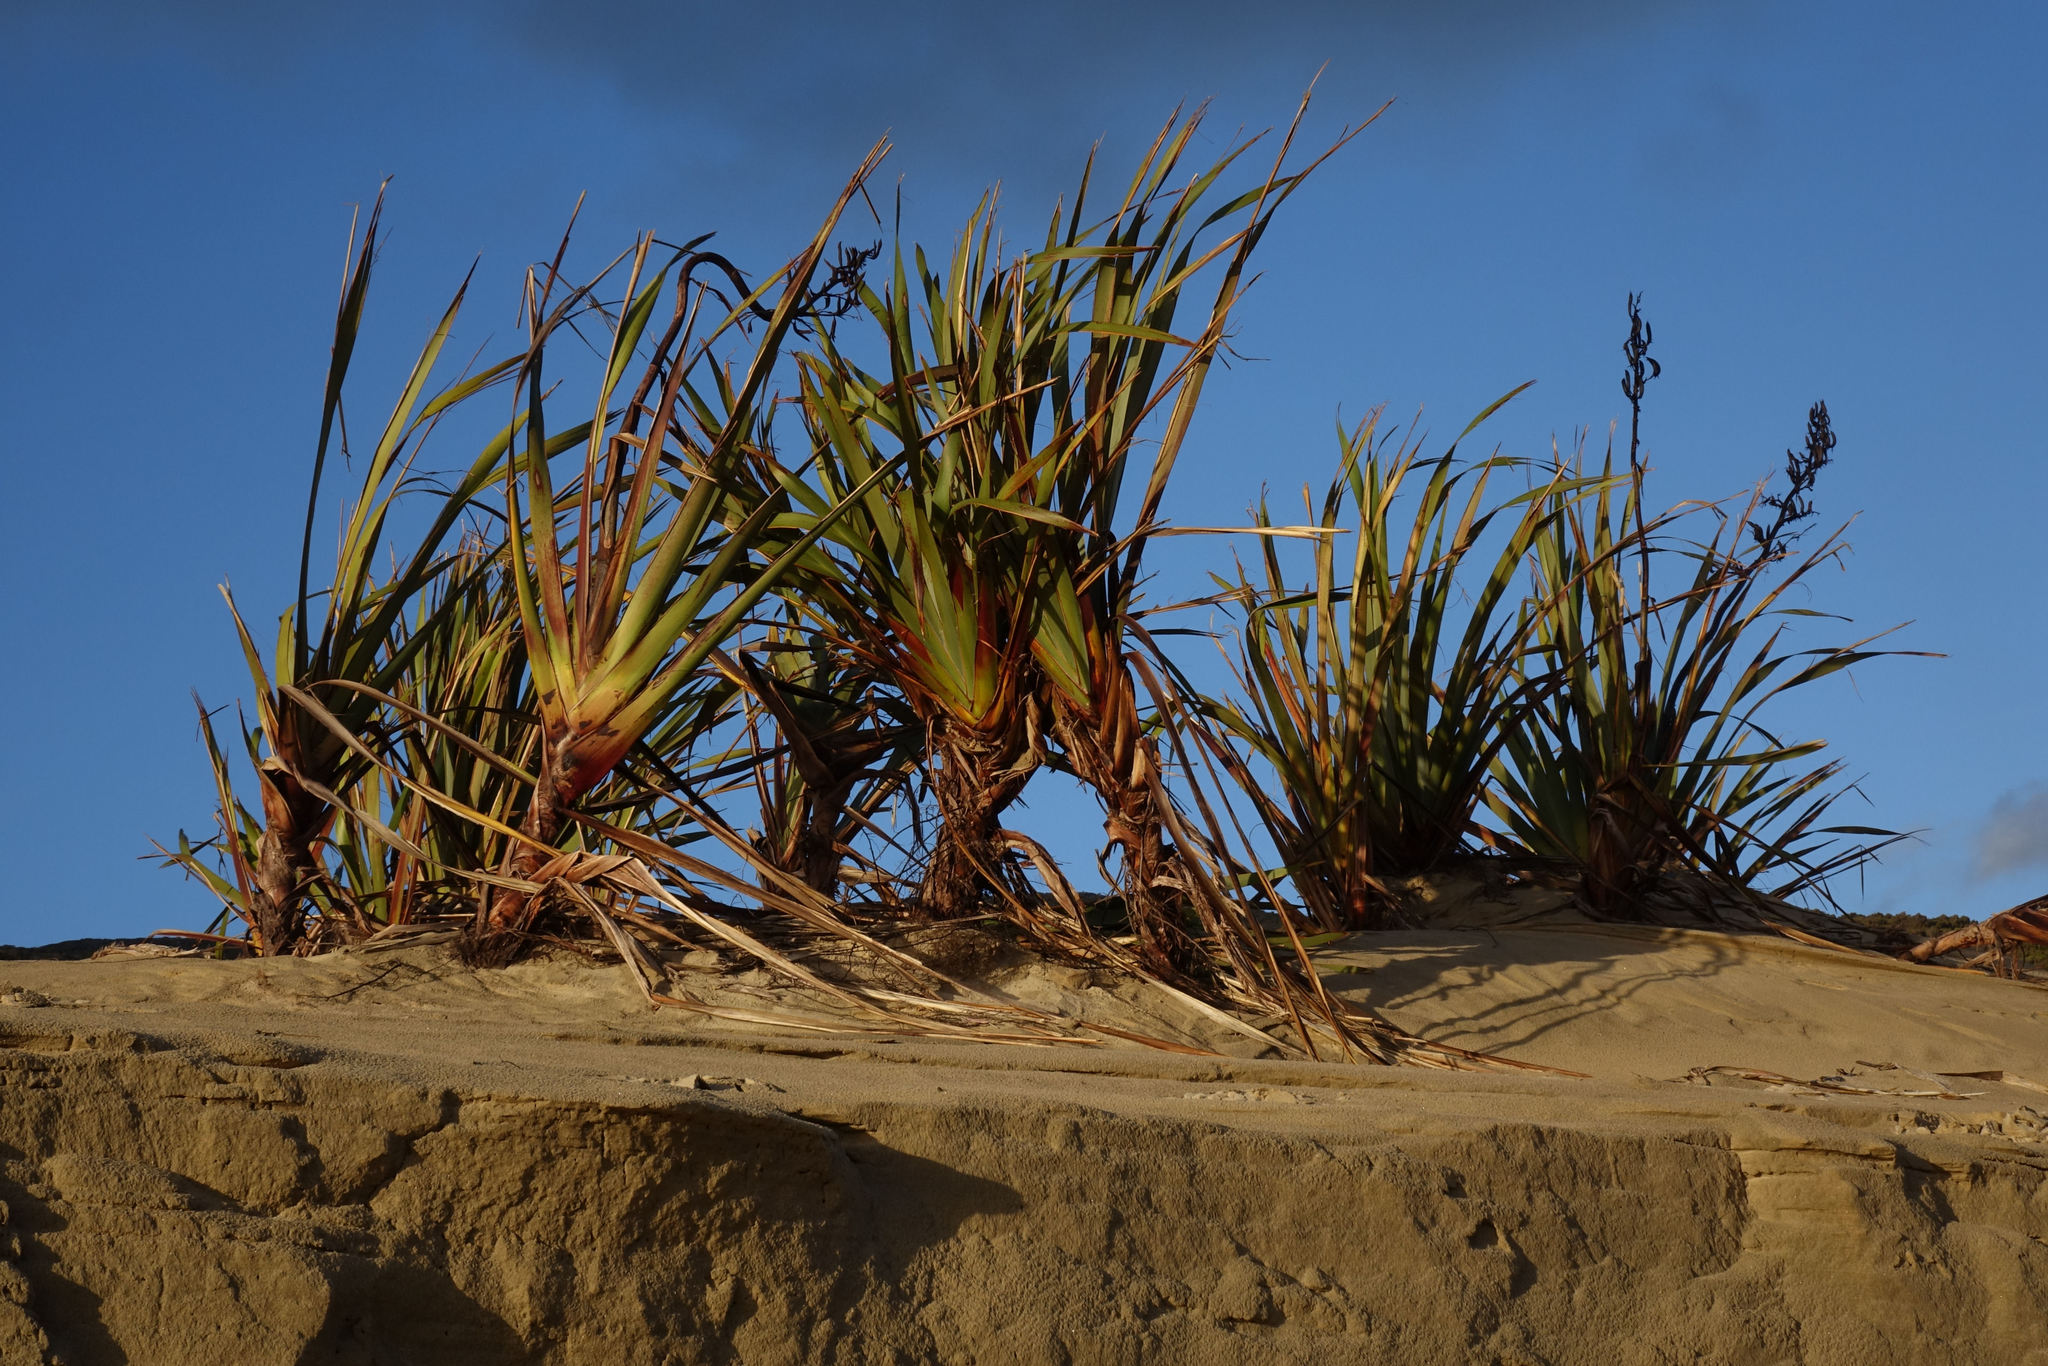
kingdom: Plantae
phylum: Tracheophyta
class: Liliopsida
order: Asparagales
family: Asphodelaceae
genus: Phormium
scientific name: Phormium tenax
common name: New zealand flax
